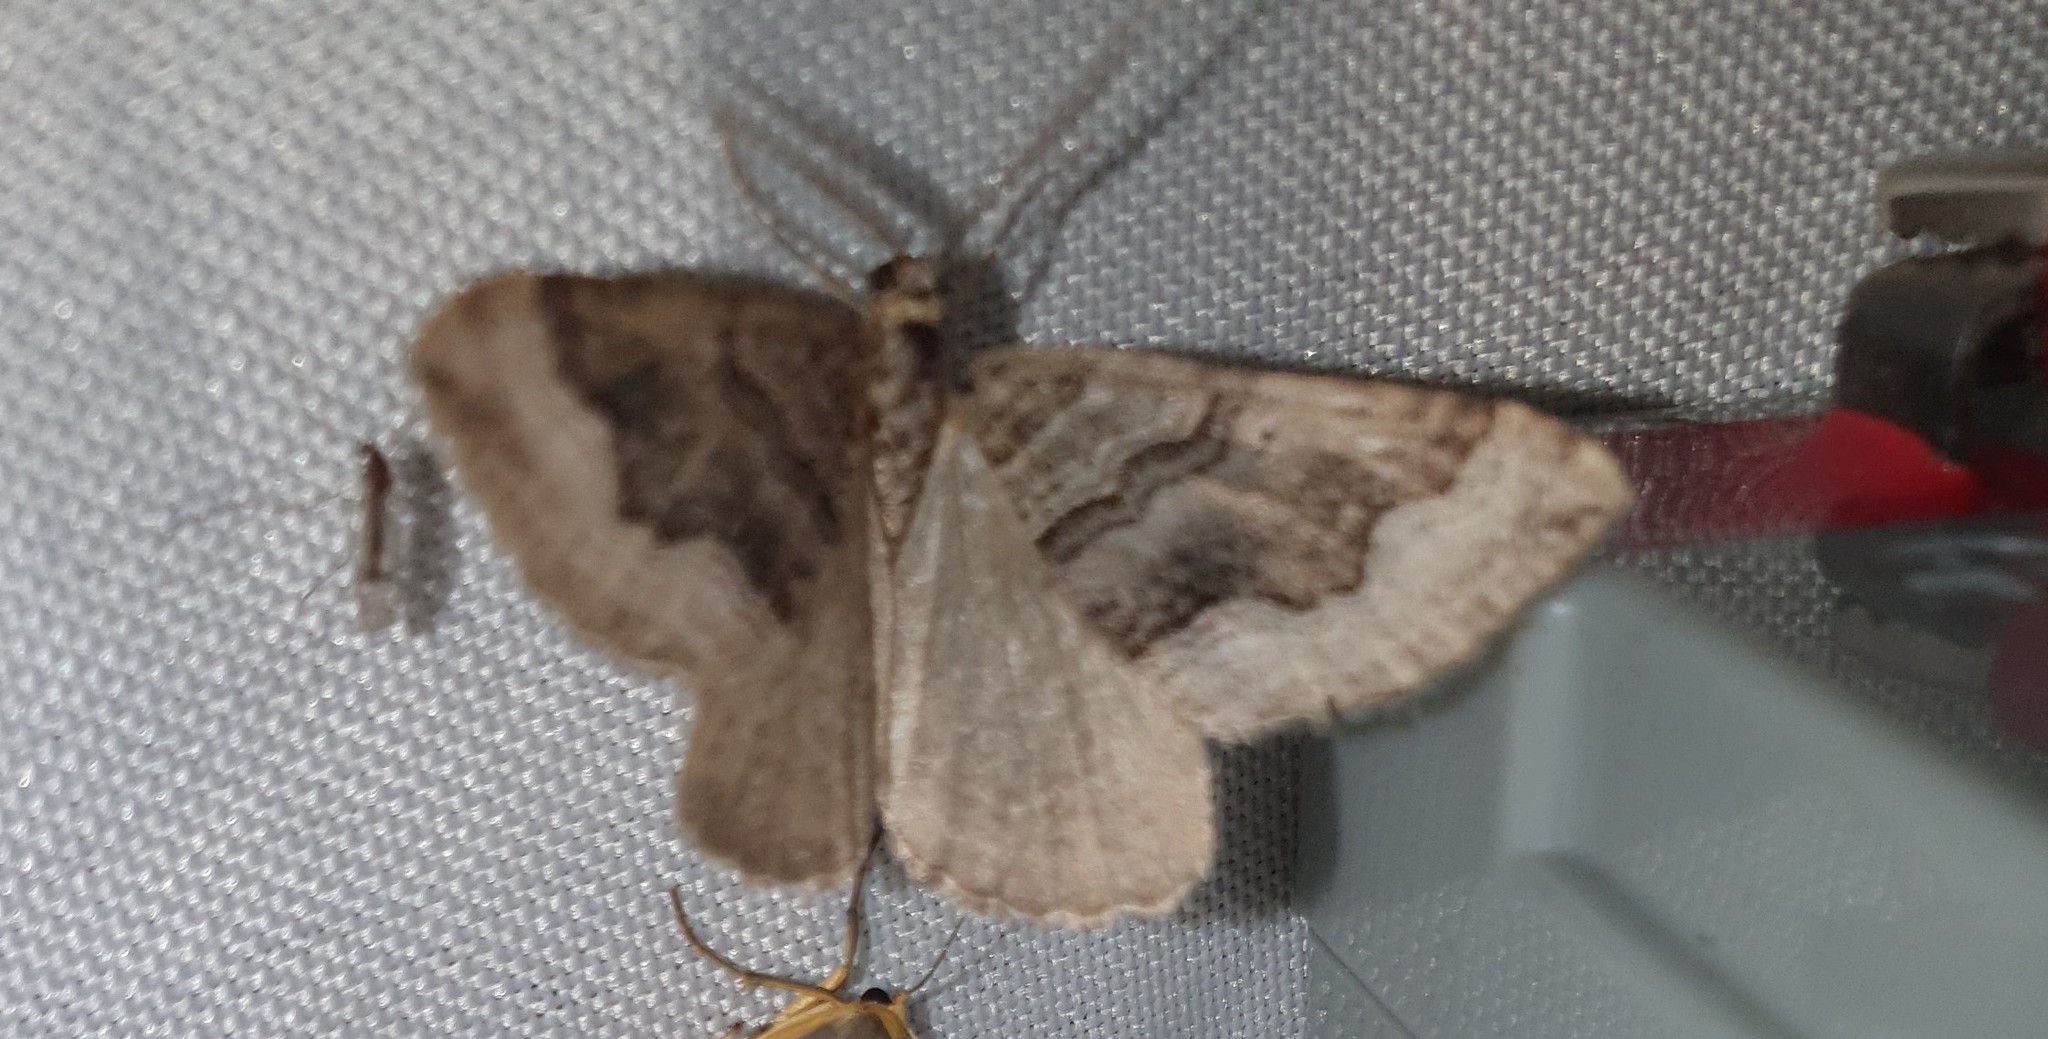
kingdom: Animalia
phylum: Arthropoda
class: Insecta
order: Lepidoptera
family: Geometridae
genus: Scotopteryx
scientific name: Scotopteryx coelinaria
